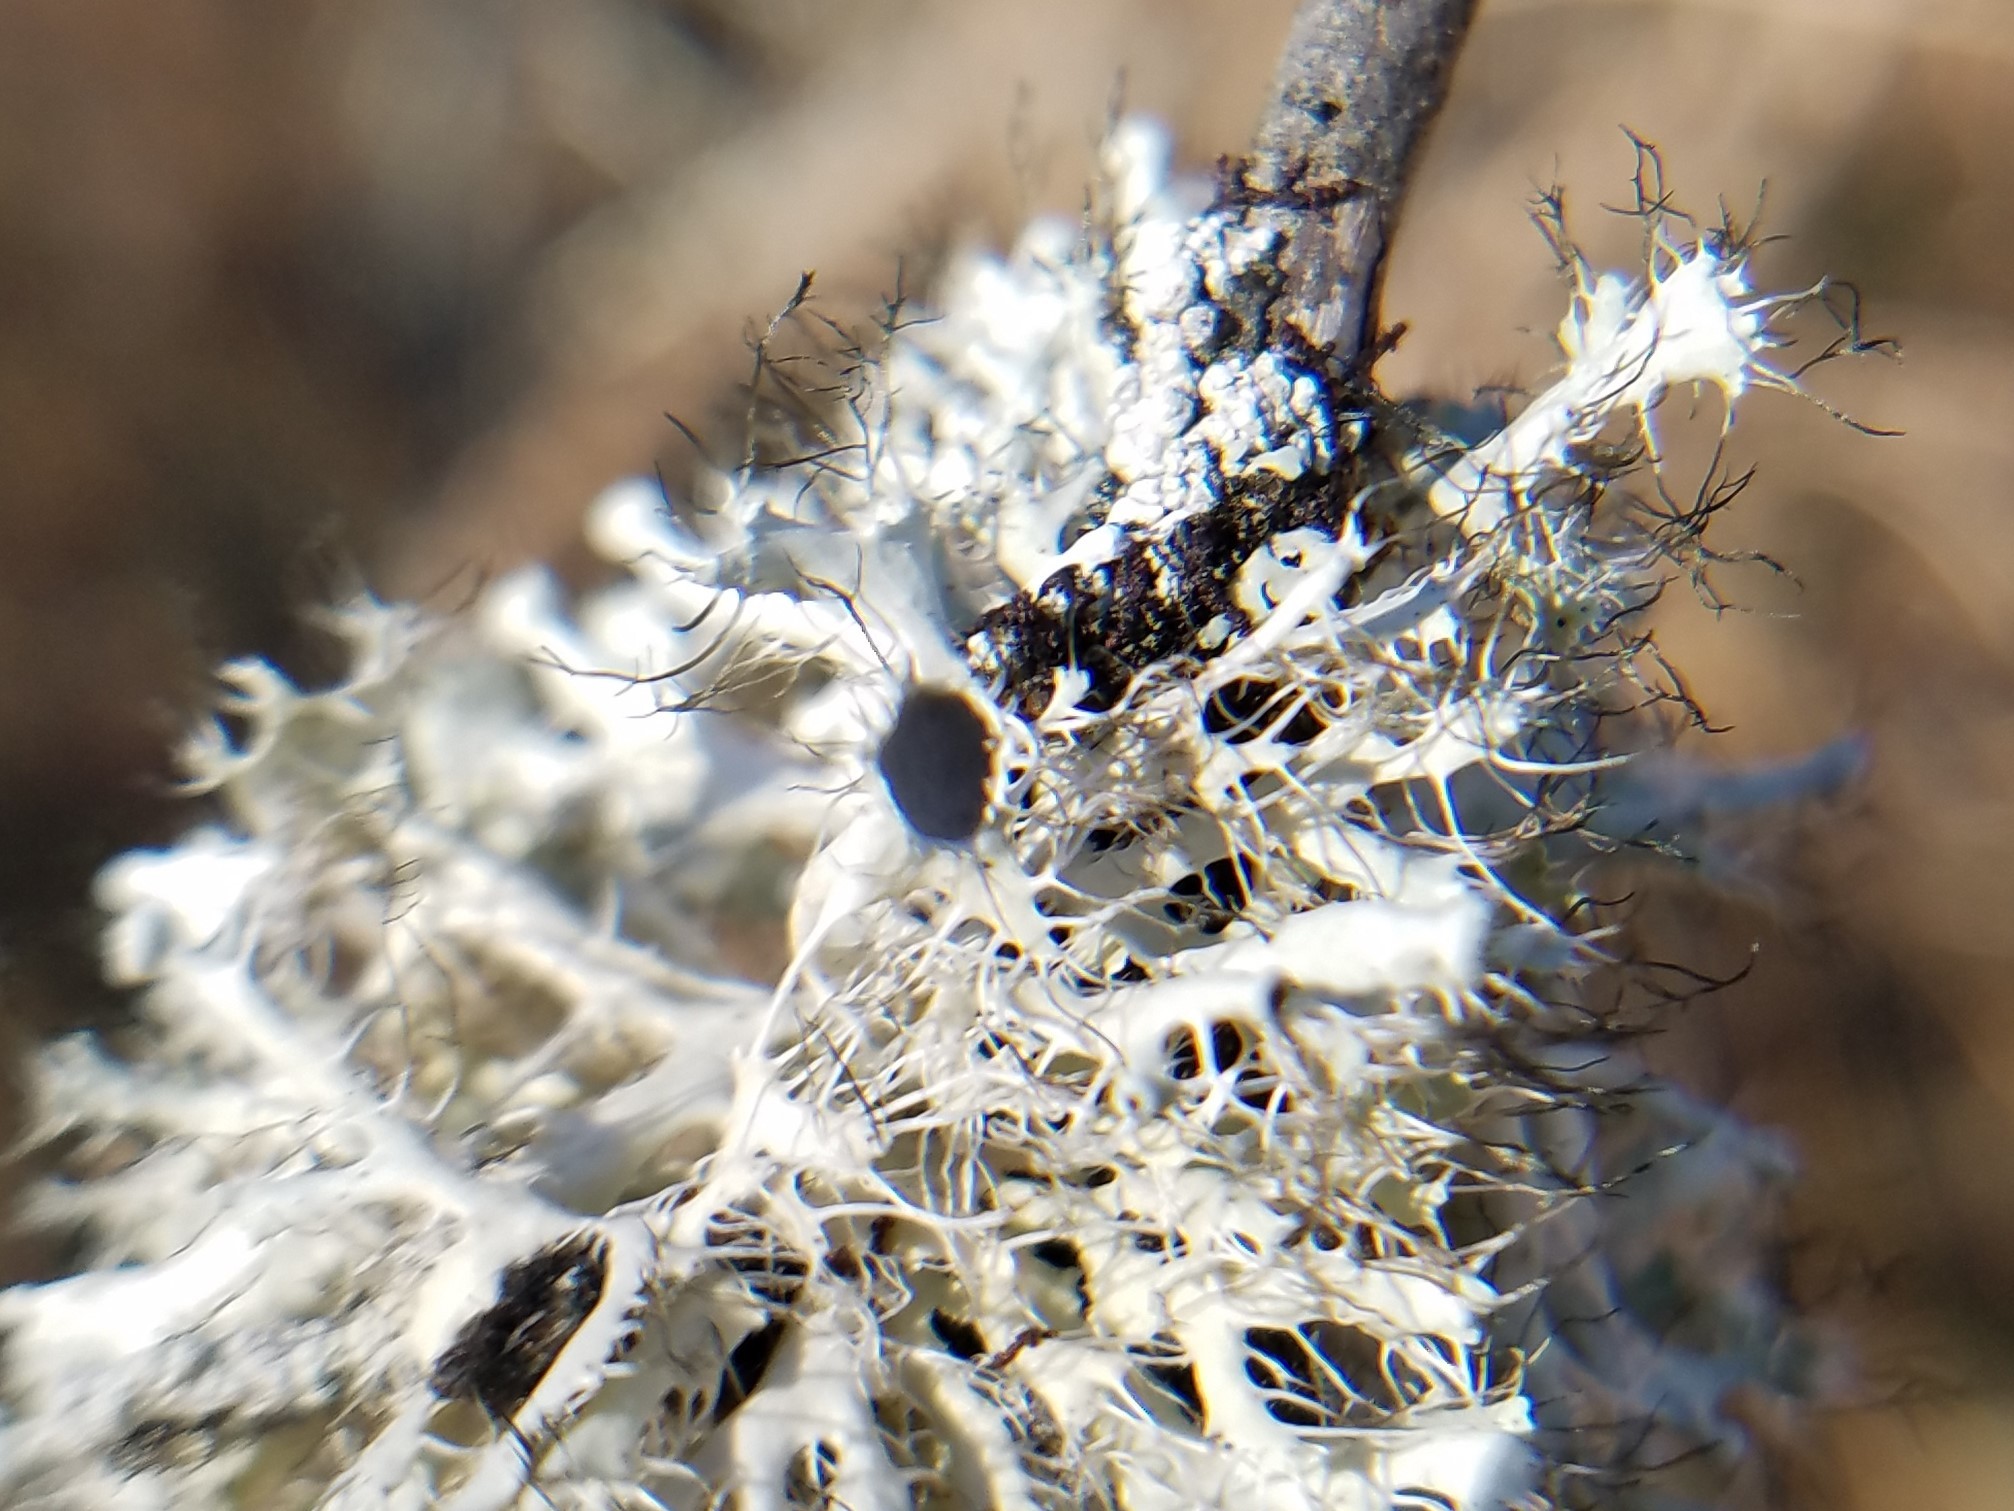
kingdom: Fungi
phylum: Ascomycota
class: Lecanoromycetes
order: Caliciales
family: Physciaceae
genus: Heterodermia
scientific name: Heterodermia echinata
